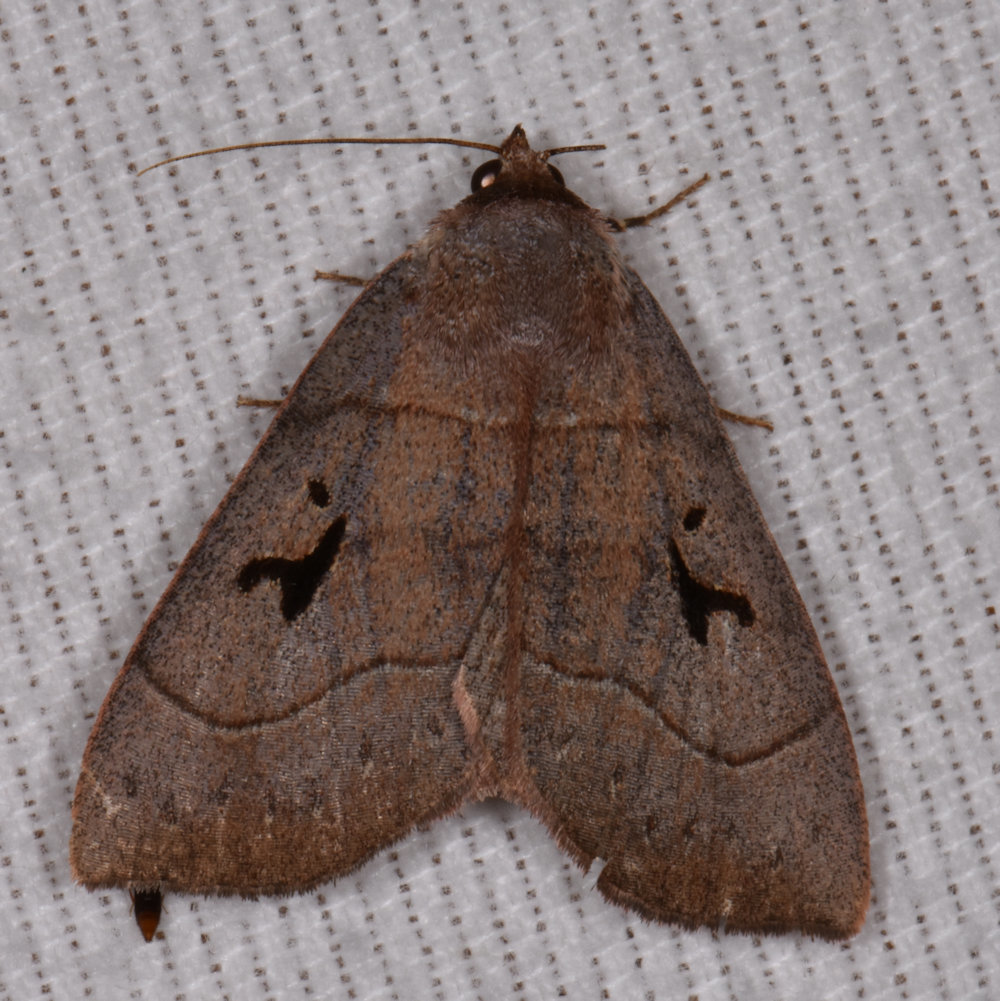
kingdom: Animalia
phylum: Arthropoda
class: Insecta
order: Lepidoptera
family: Erebidae
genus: Panopoda
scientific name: Panopoda carneicosta
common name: Brown panopoda moth
